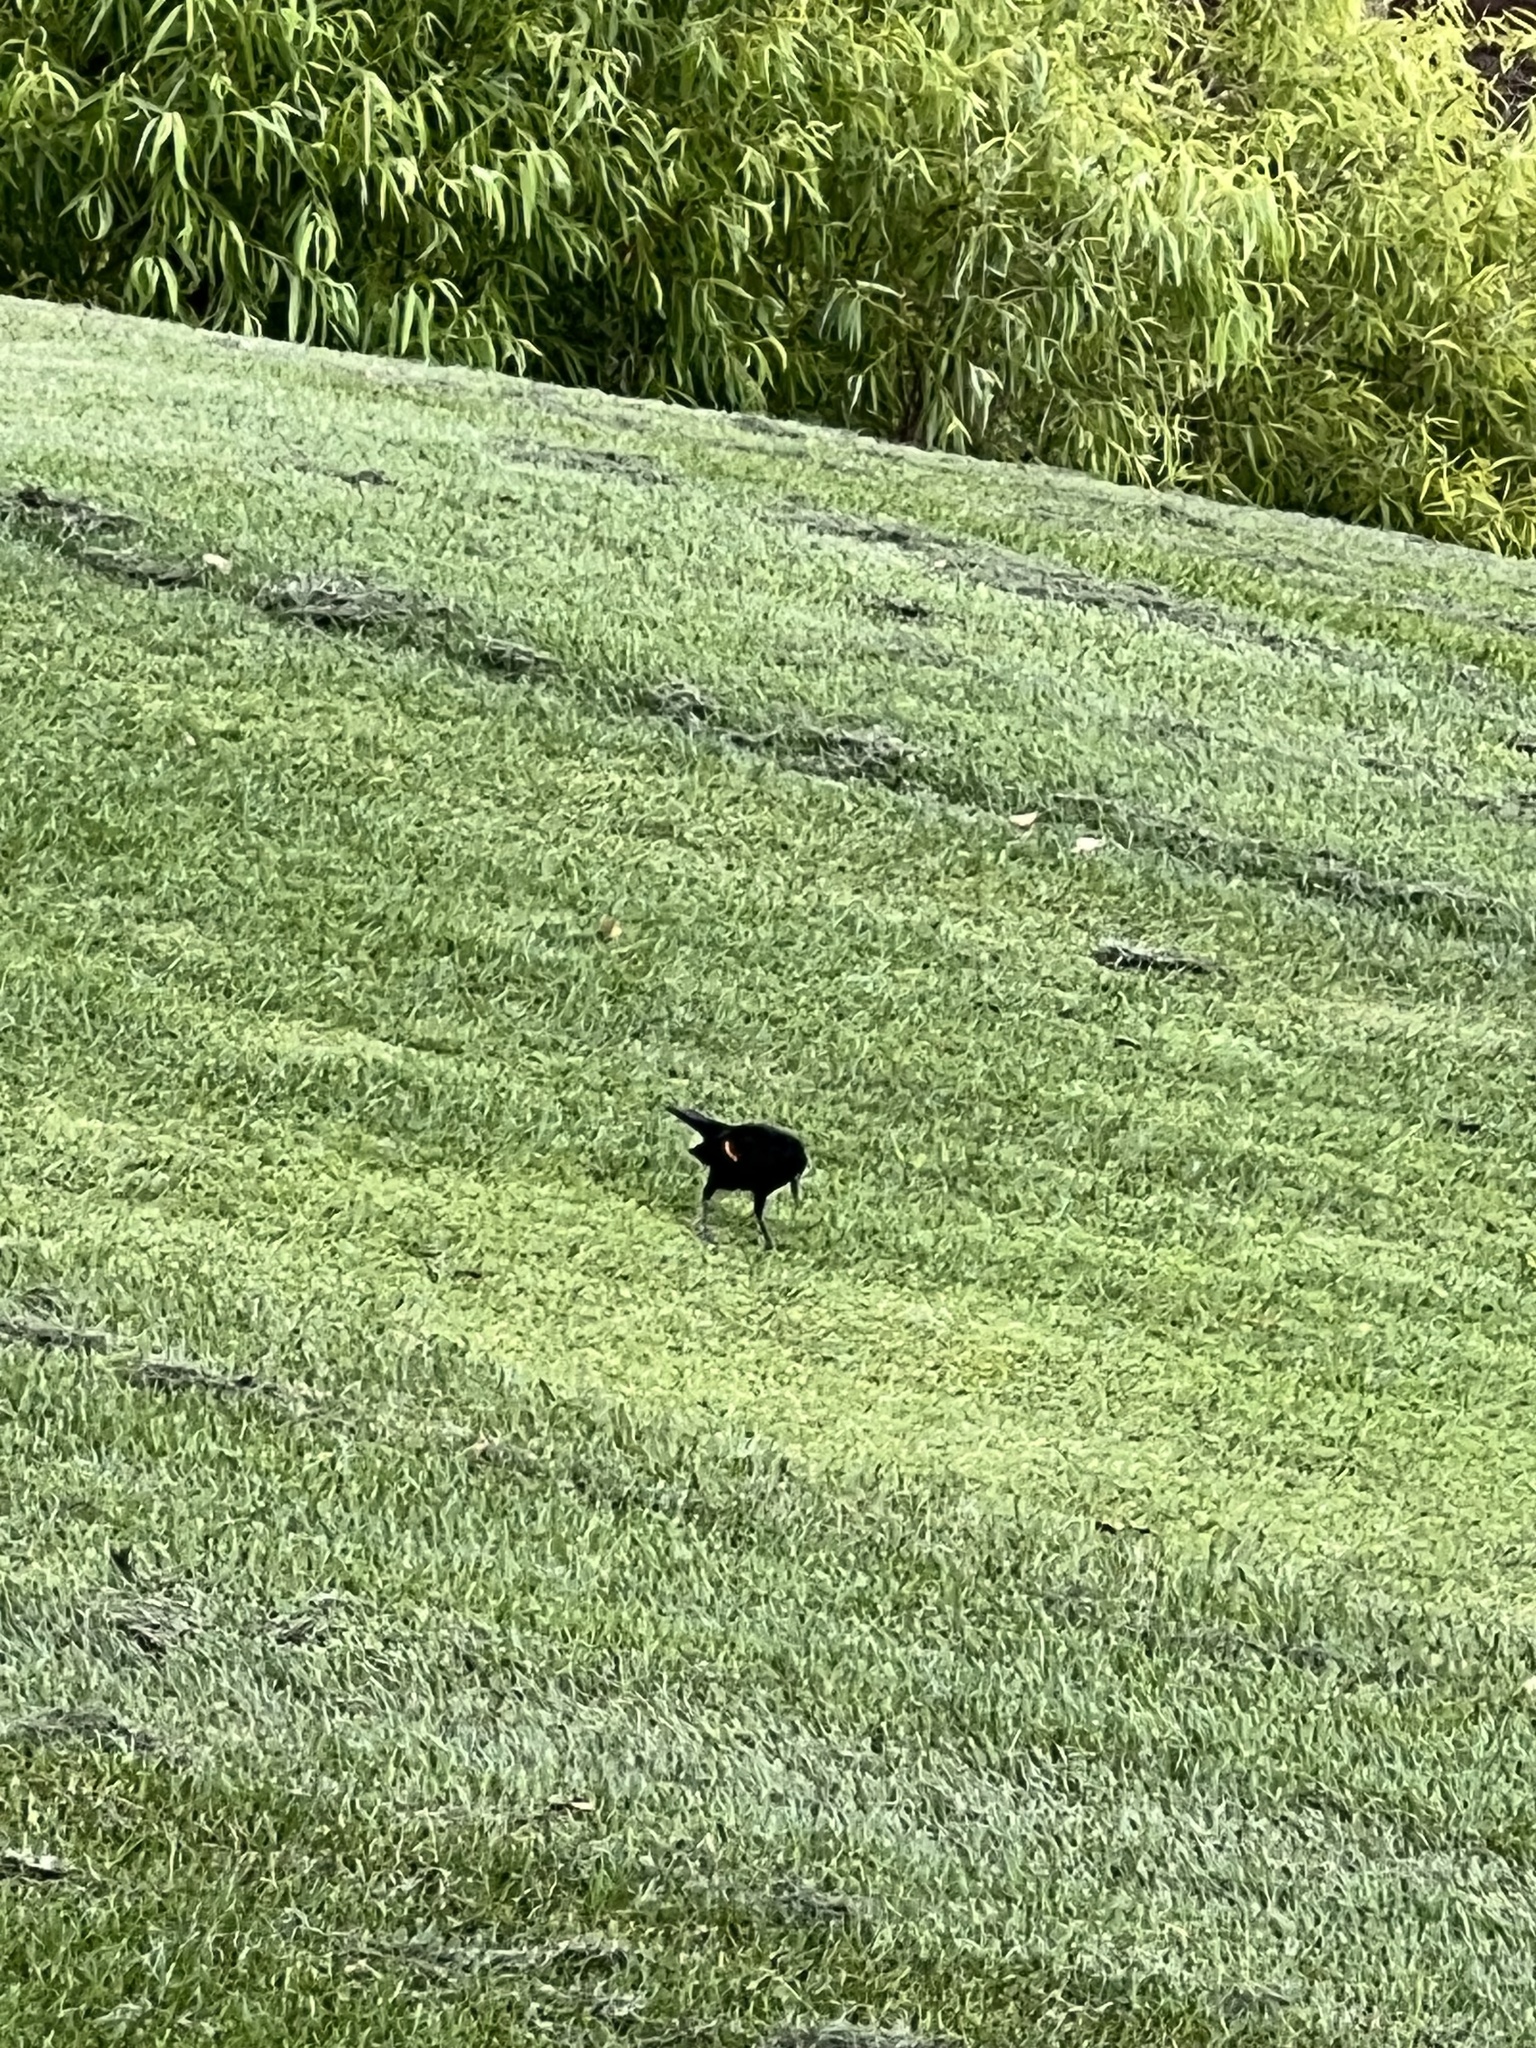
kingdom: Animalia
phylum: Chordata
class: Aves
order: Passeriformes
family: Icteridae
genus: Agelaius
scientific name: Agelaius phoeniceus
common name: Red-winged blackbird
